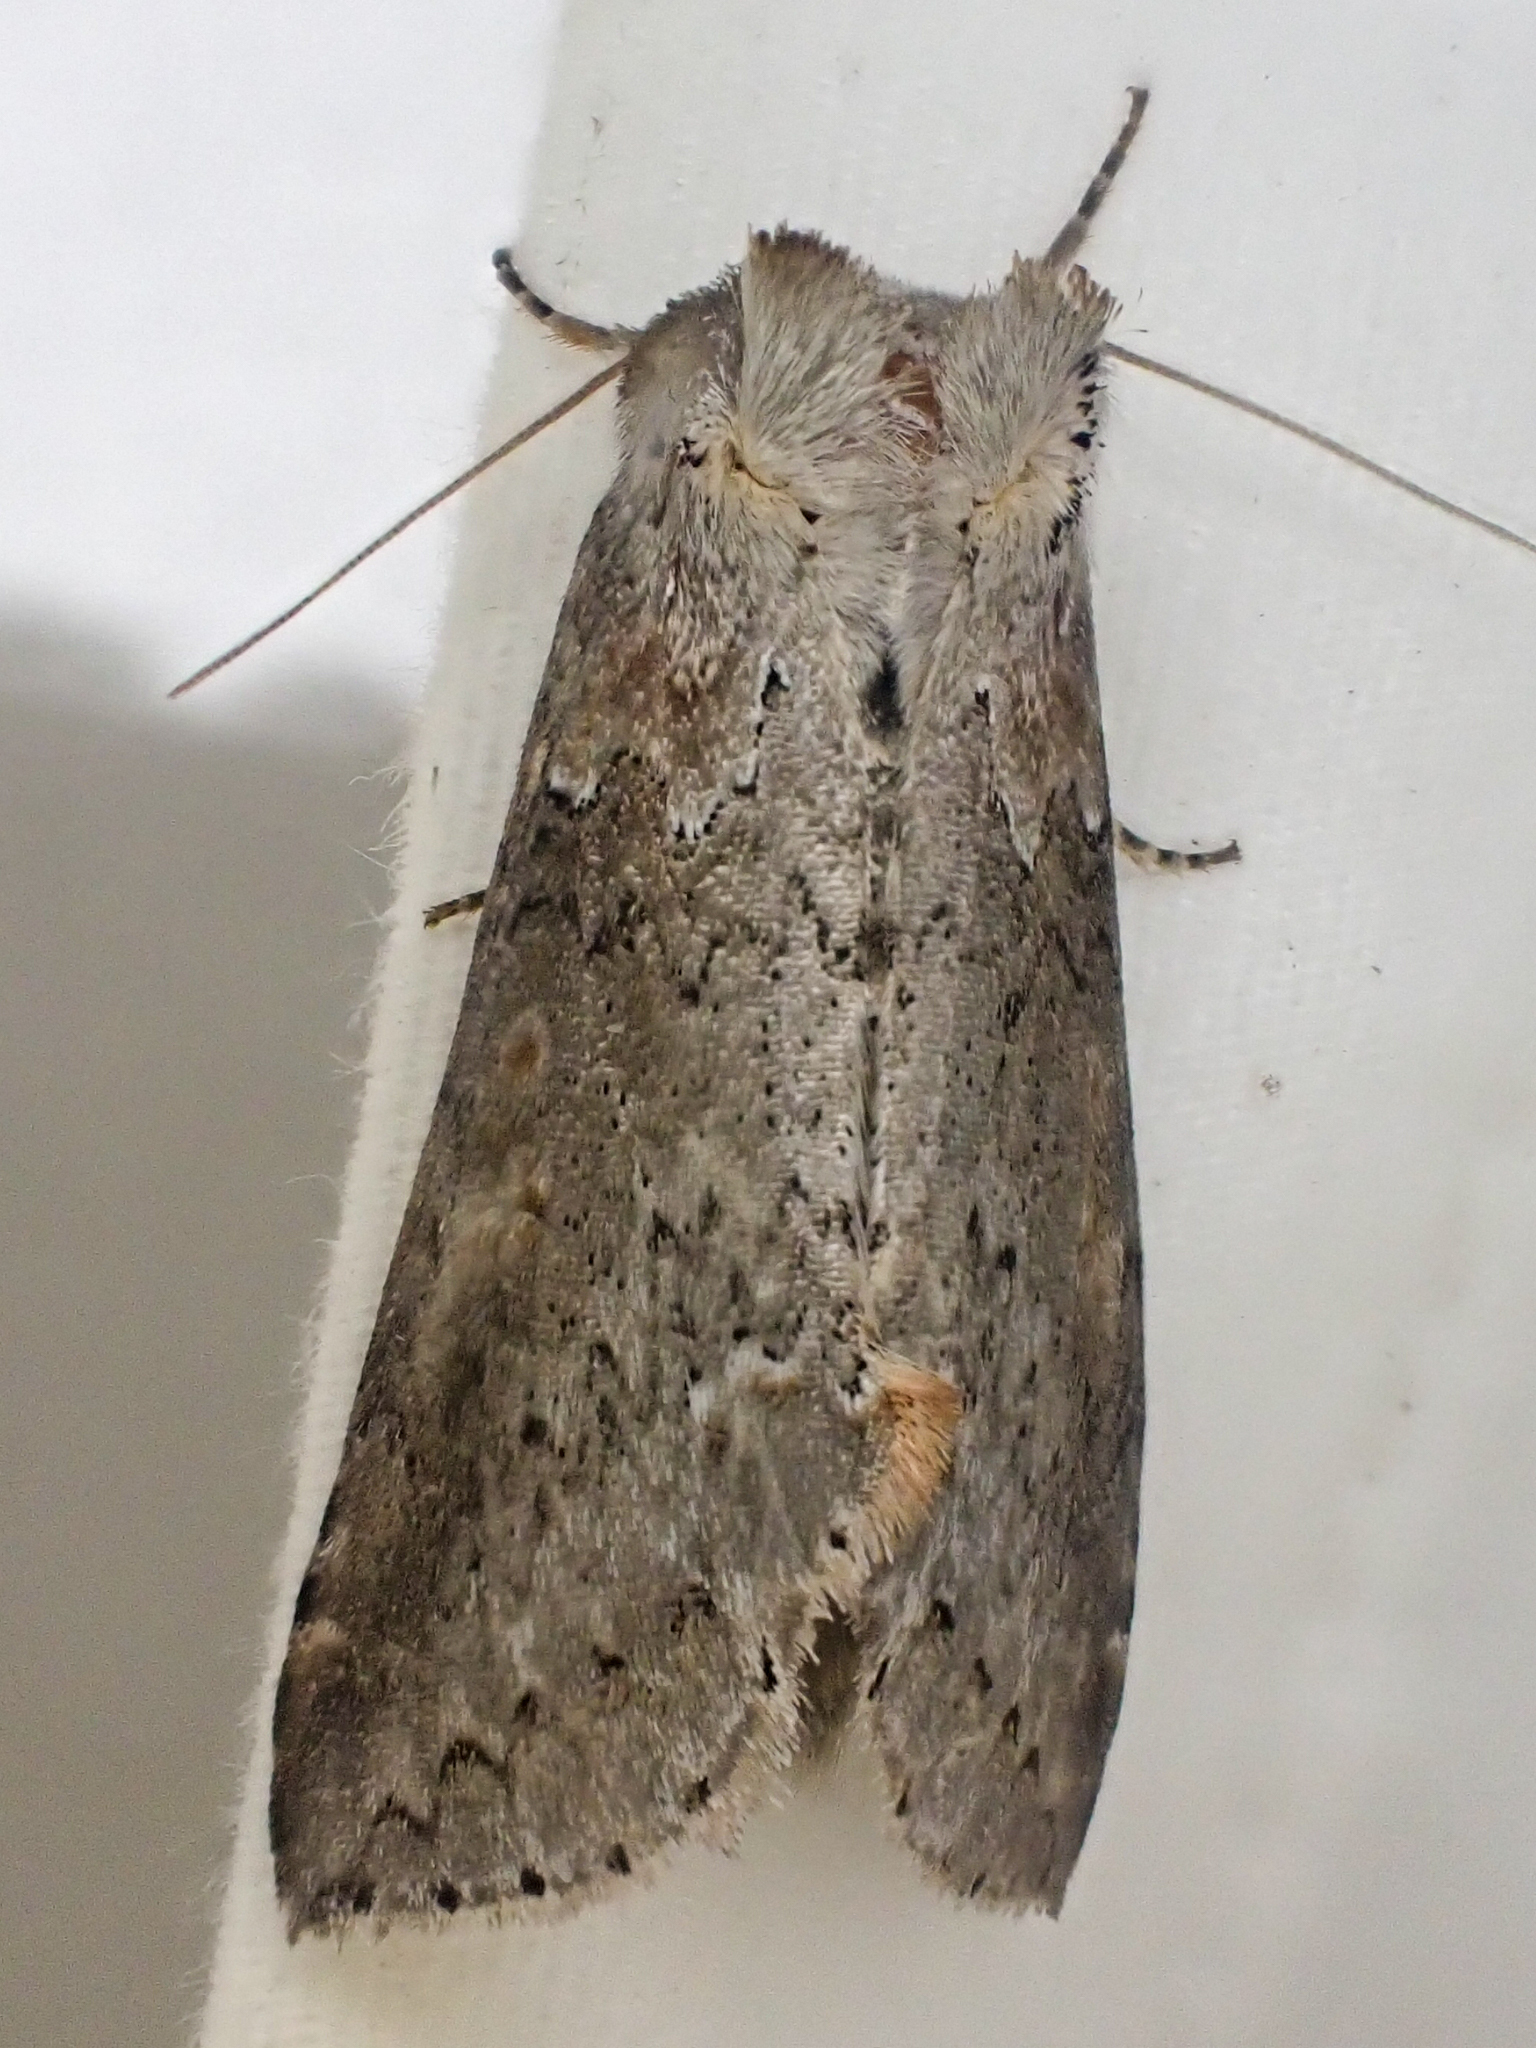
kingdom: Animalia
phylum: Arthropoda
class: Insecta
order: Lepidoptera
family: Drepanidae
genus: Pseudothyatira
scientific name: Pseudothyatira cymatophoroides
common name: Tufted thyatirid moth
